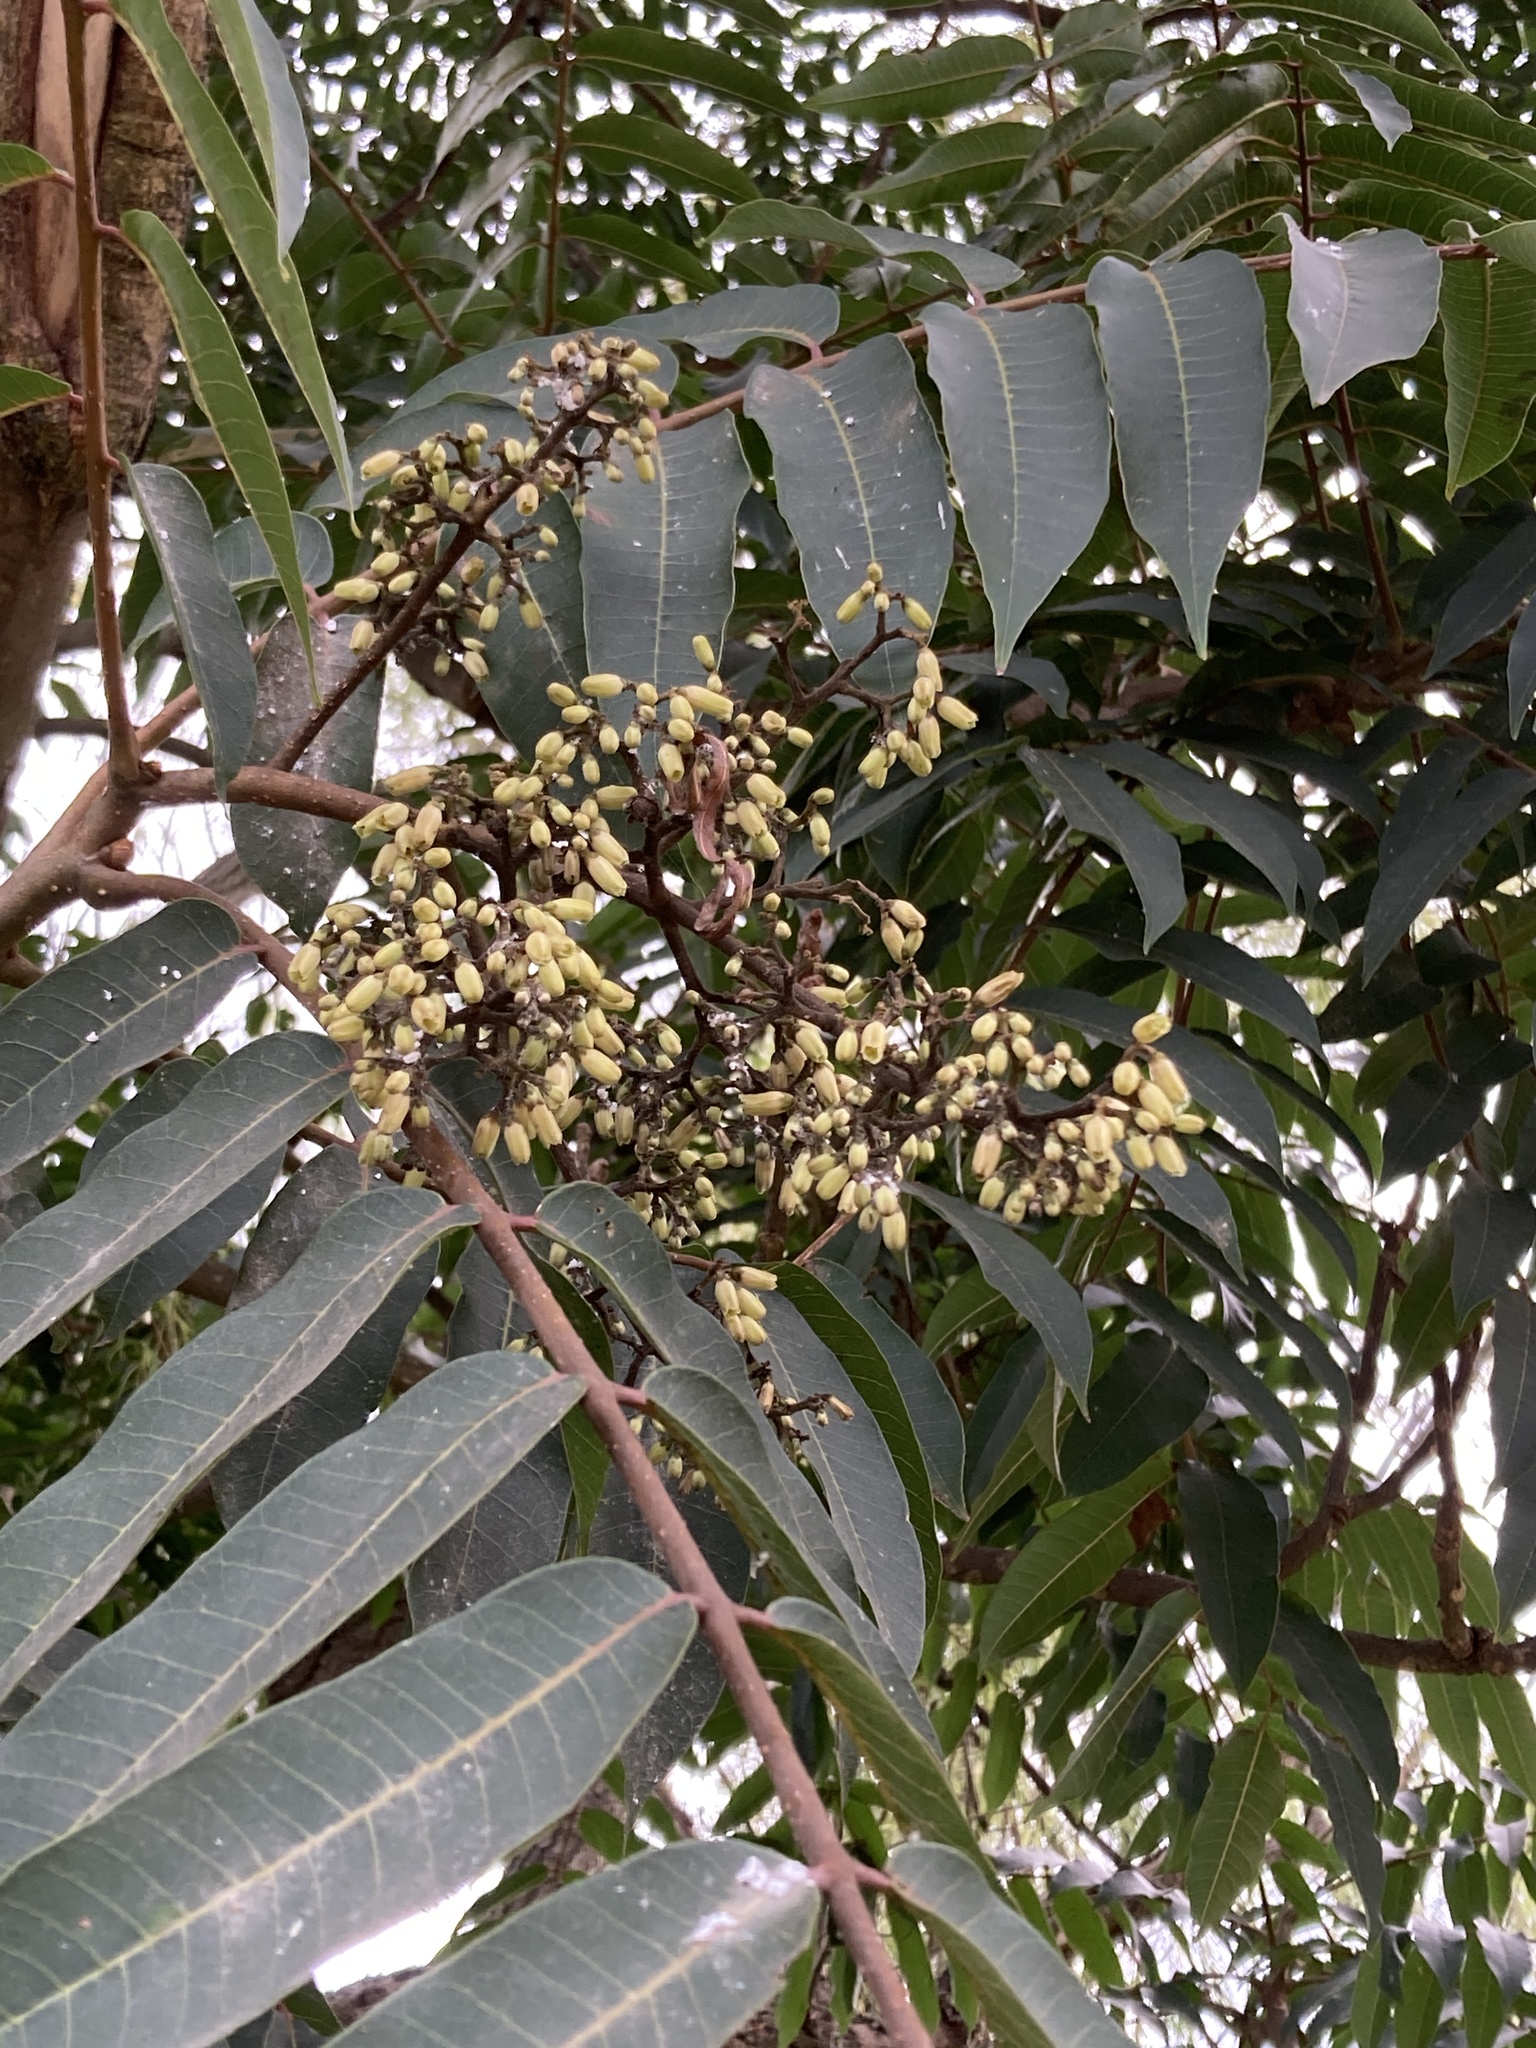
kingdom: Plantae
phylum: Tracheophyta
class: Magnoliopsida
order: Sapindales
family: Meliaceae
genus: Cedrela
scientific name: Cedrela montana
